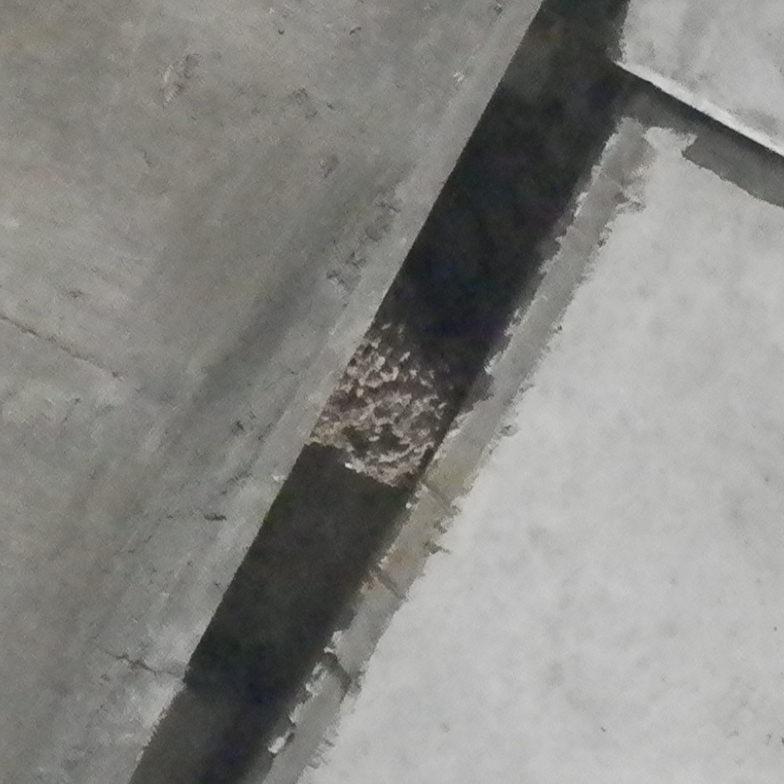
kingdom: Animalia
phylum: Chordata
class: Aves
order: Passeriformes
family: Hirundinidae
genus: Petrochelidon
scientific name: Petrochelidon pyrrhonota
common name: American cliff swallow
